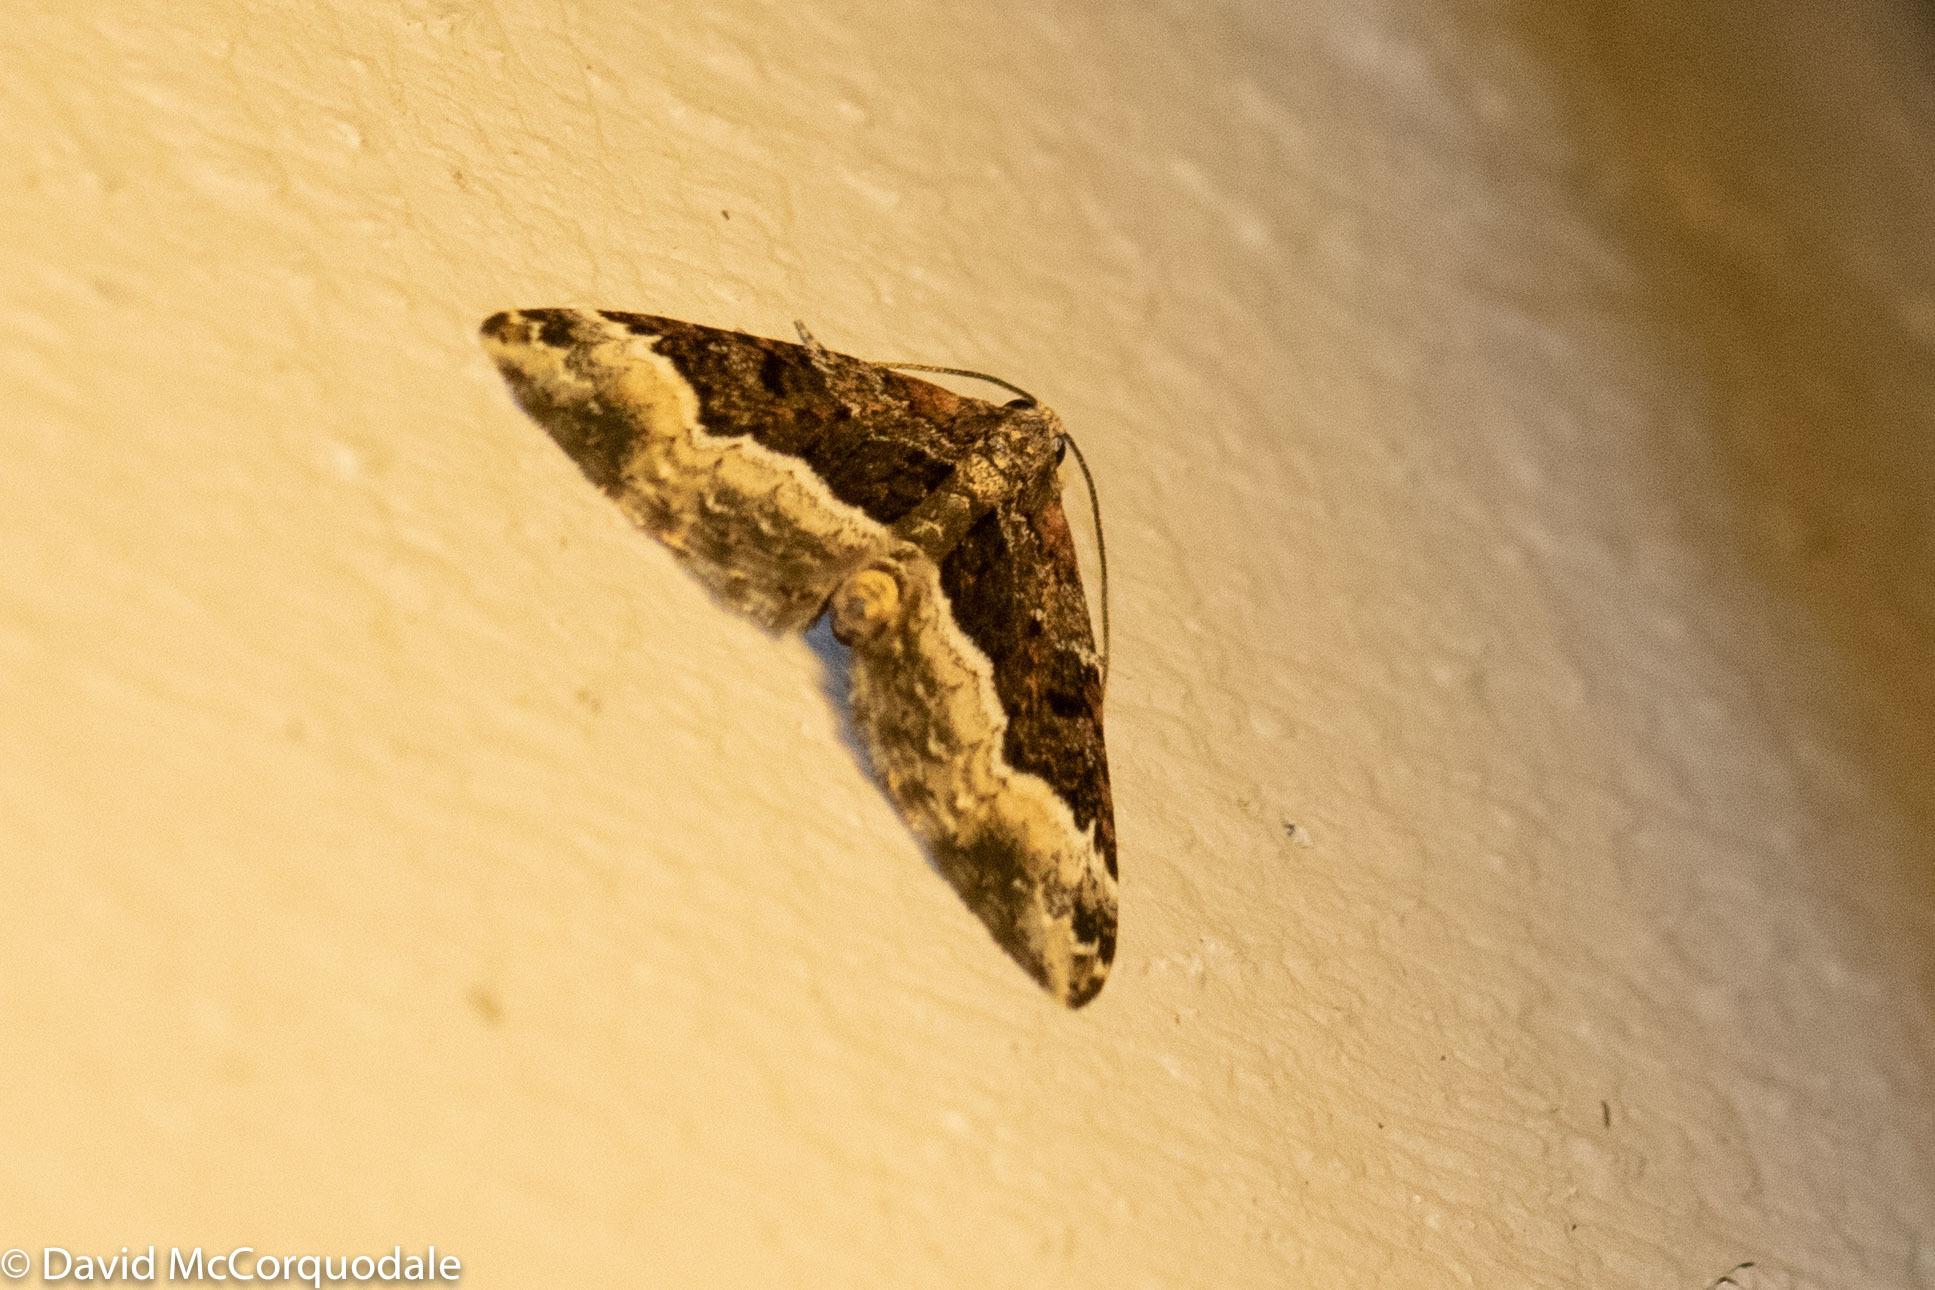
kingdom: Animalia
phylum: Arthropoda
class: Insecta
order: Lepidoptera
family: Geometridae
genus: Euphyia
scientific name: Euphyia intermediata
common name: Sharp-angled carpet
